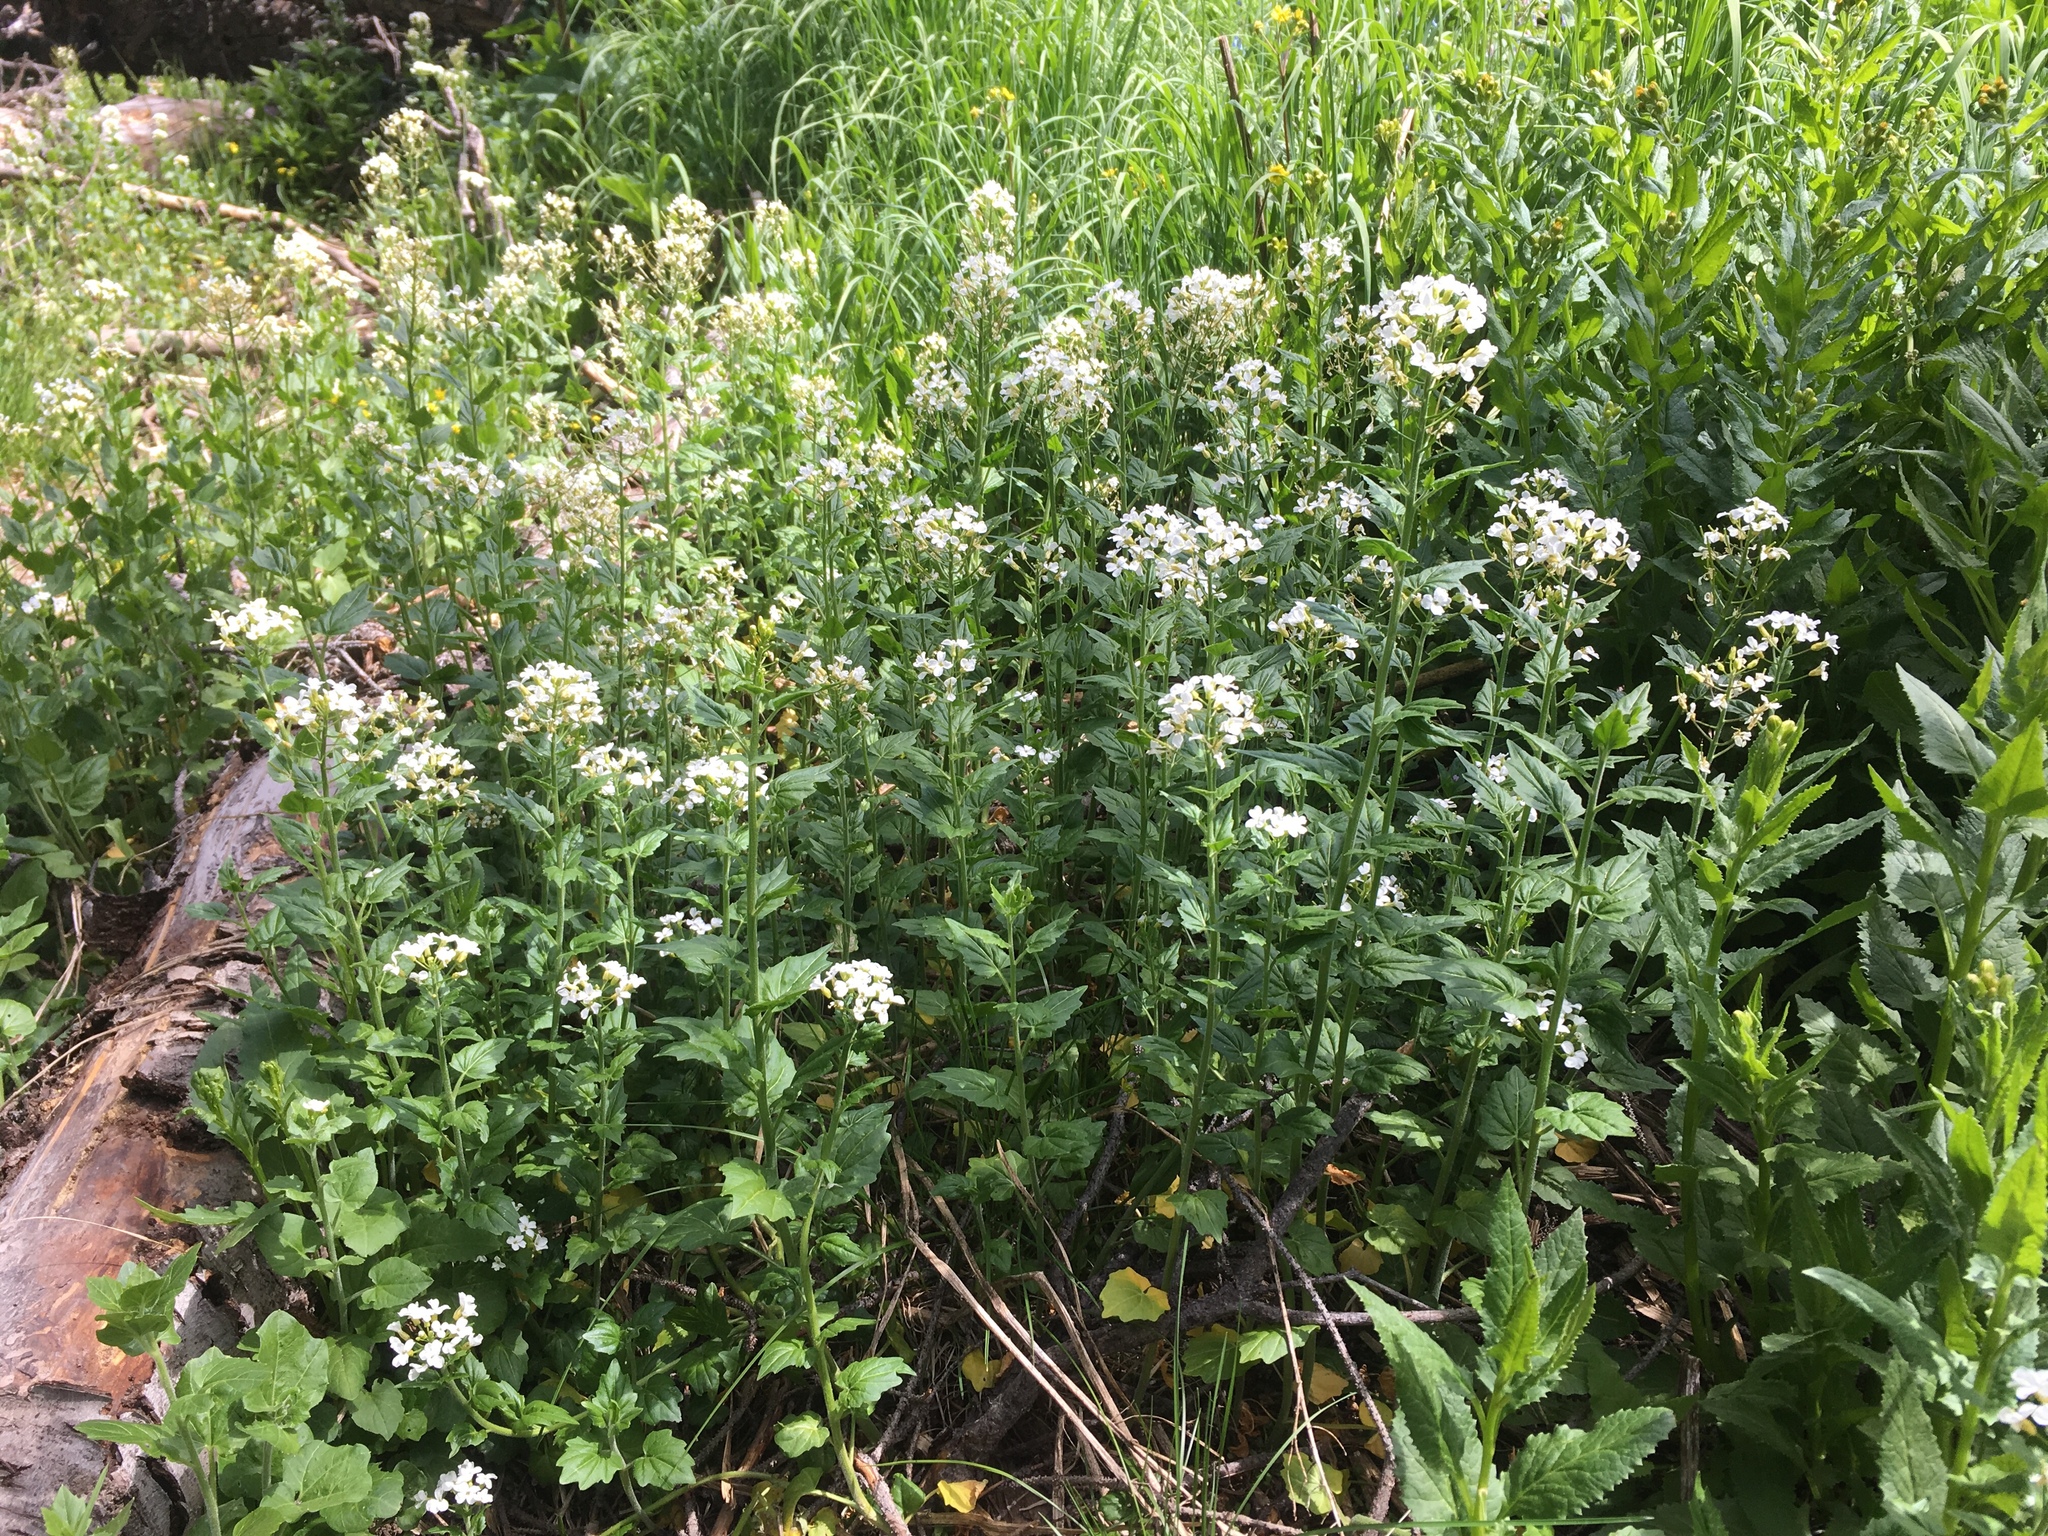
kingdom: Plantae
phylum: Tracheophyta
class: Magnoliopsida
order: Brassicales
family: Brassicaceae
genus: Cardamine
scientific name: Cardamine cordifolia
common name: Heart-leaf bittercress
